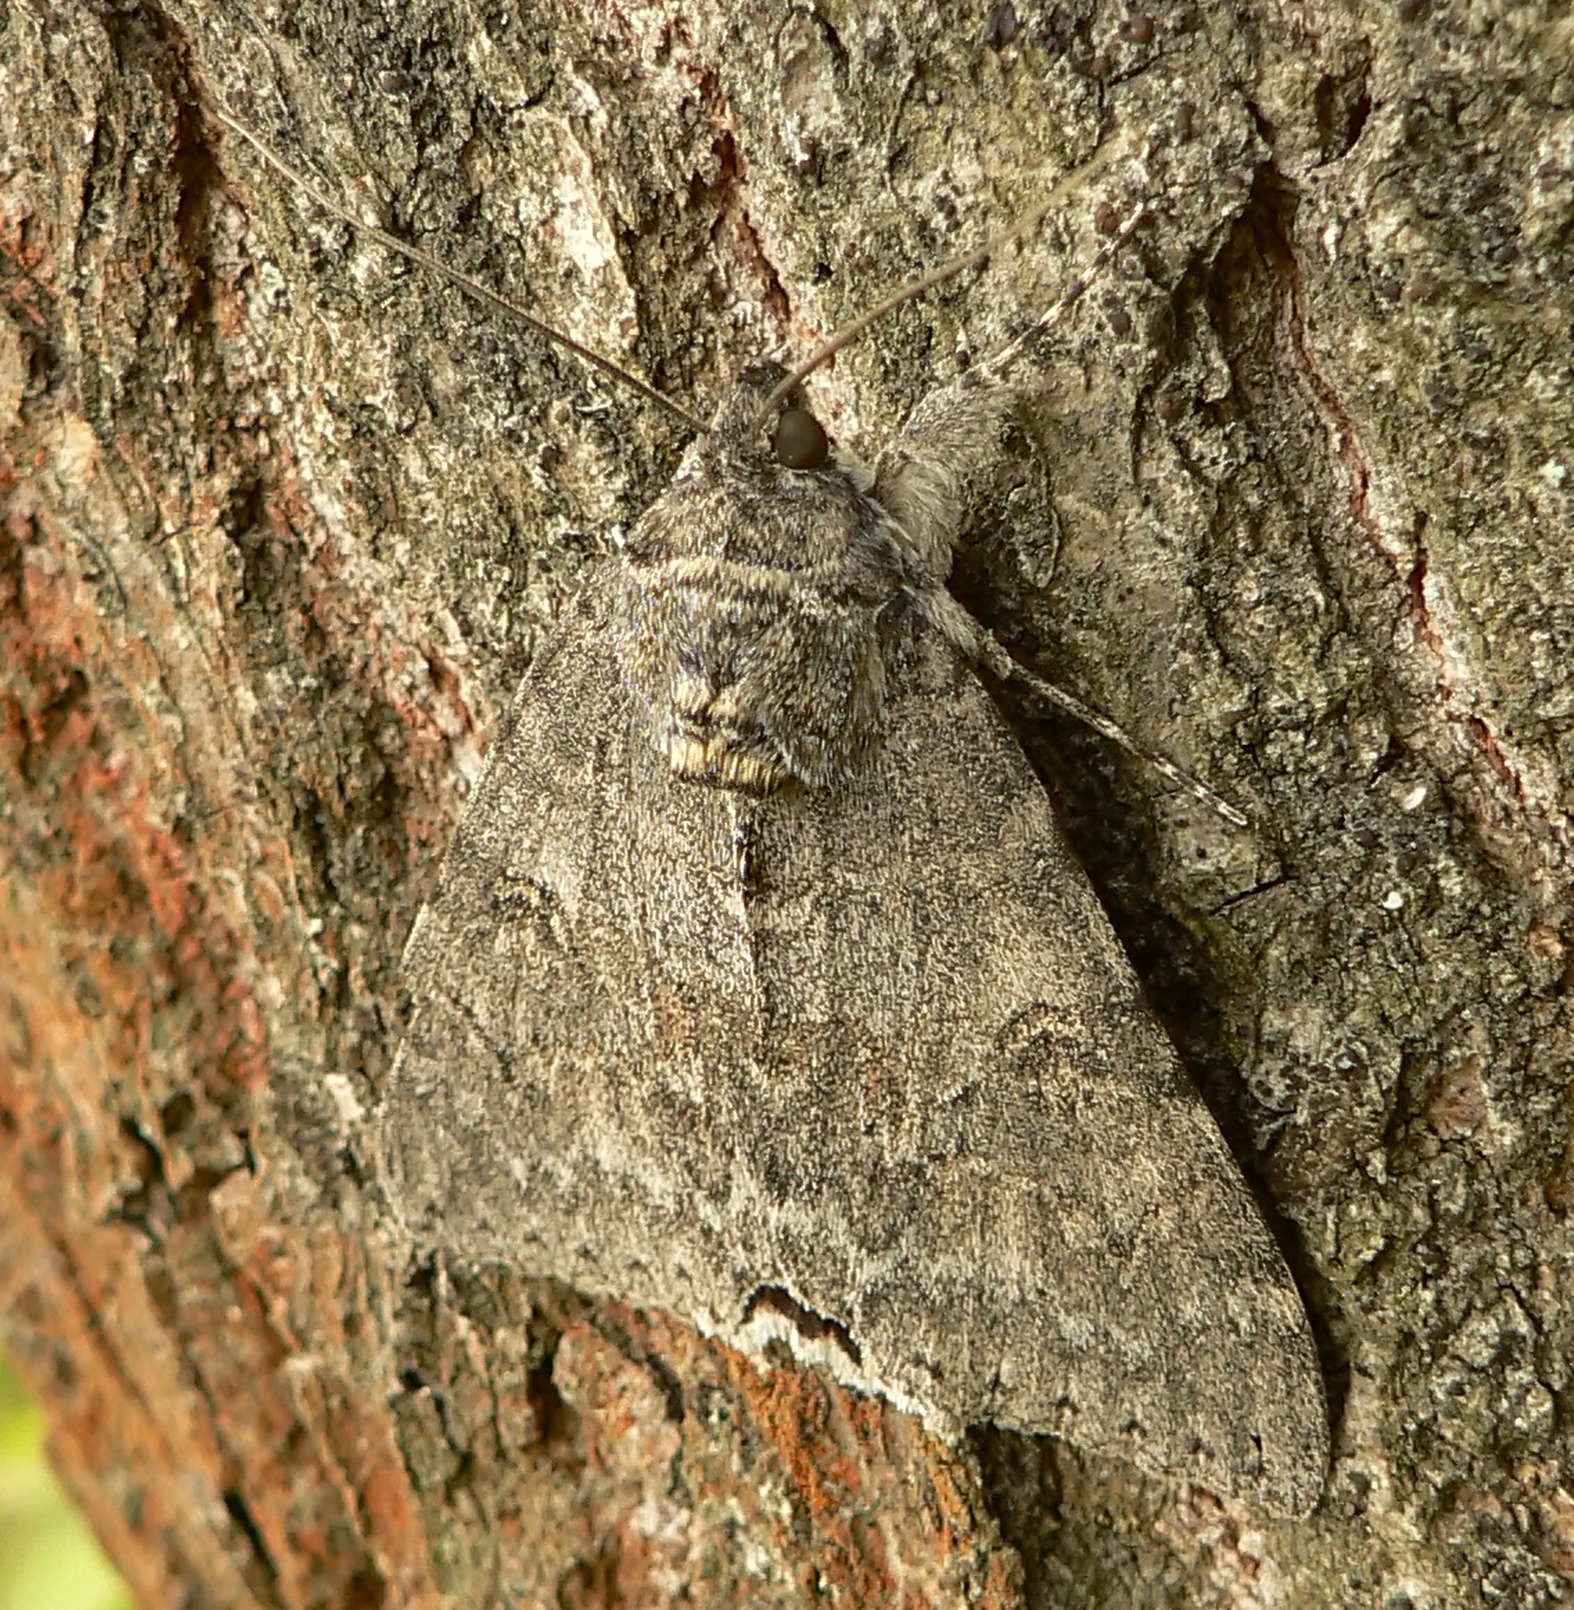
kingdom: Animalia
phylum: Arthropoda
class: Insecta
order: Lepidoptera
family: Erebidae
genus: Catocala
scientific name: Catocala nupta
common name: Red underwing
